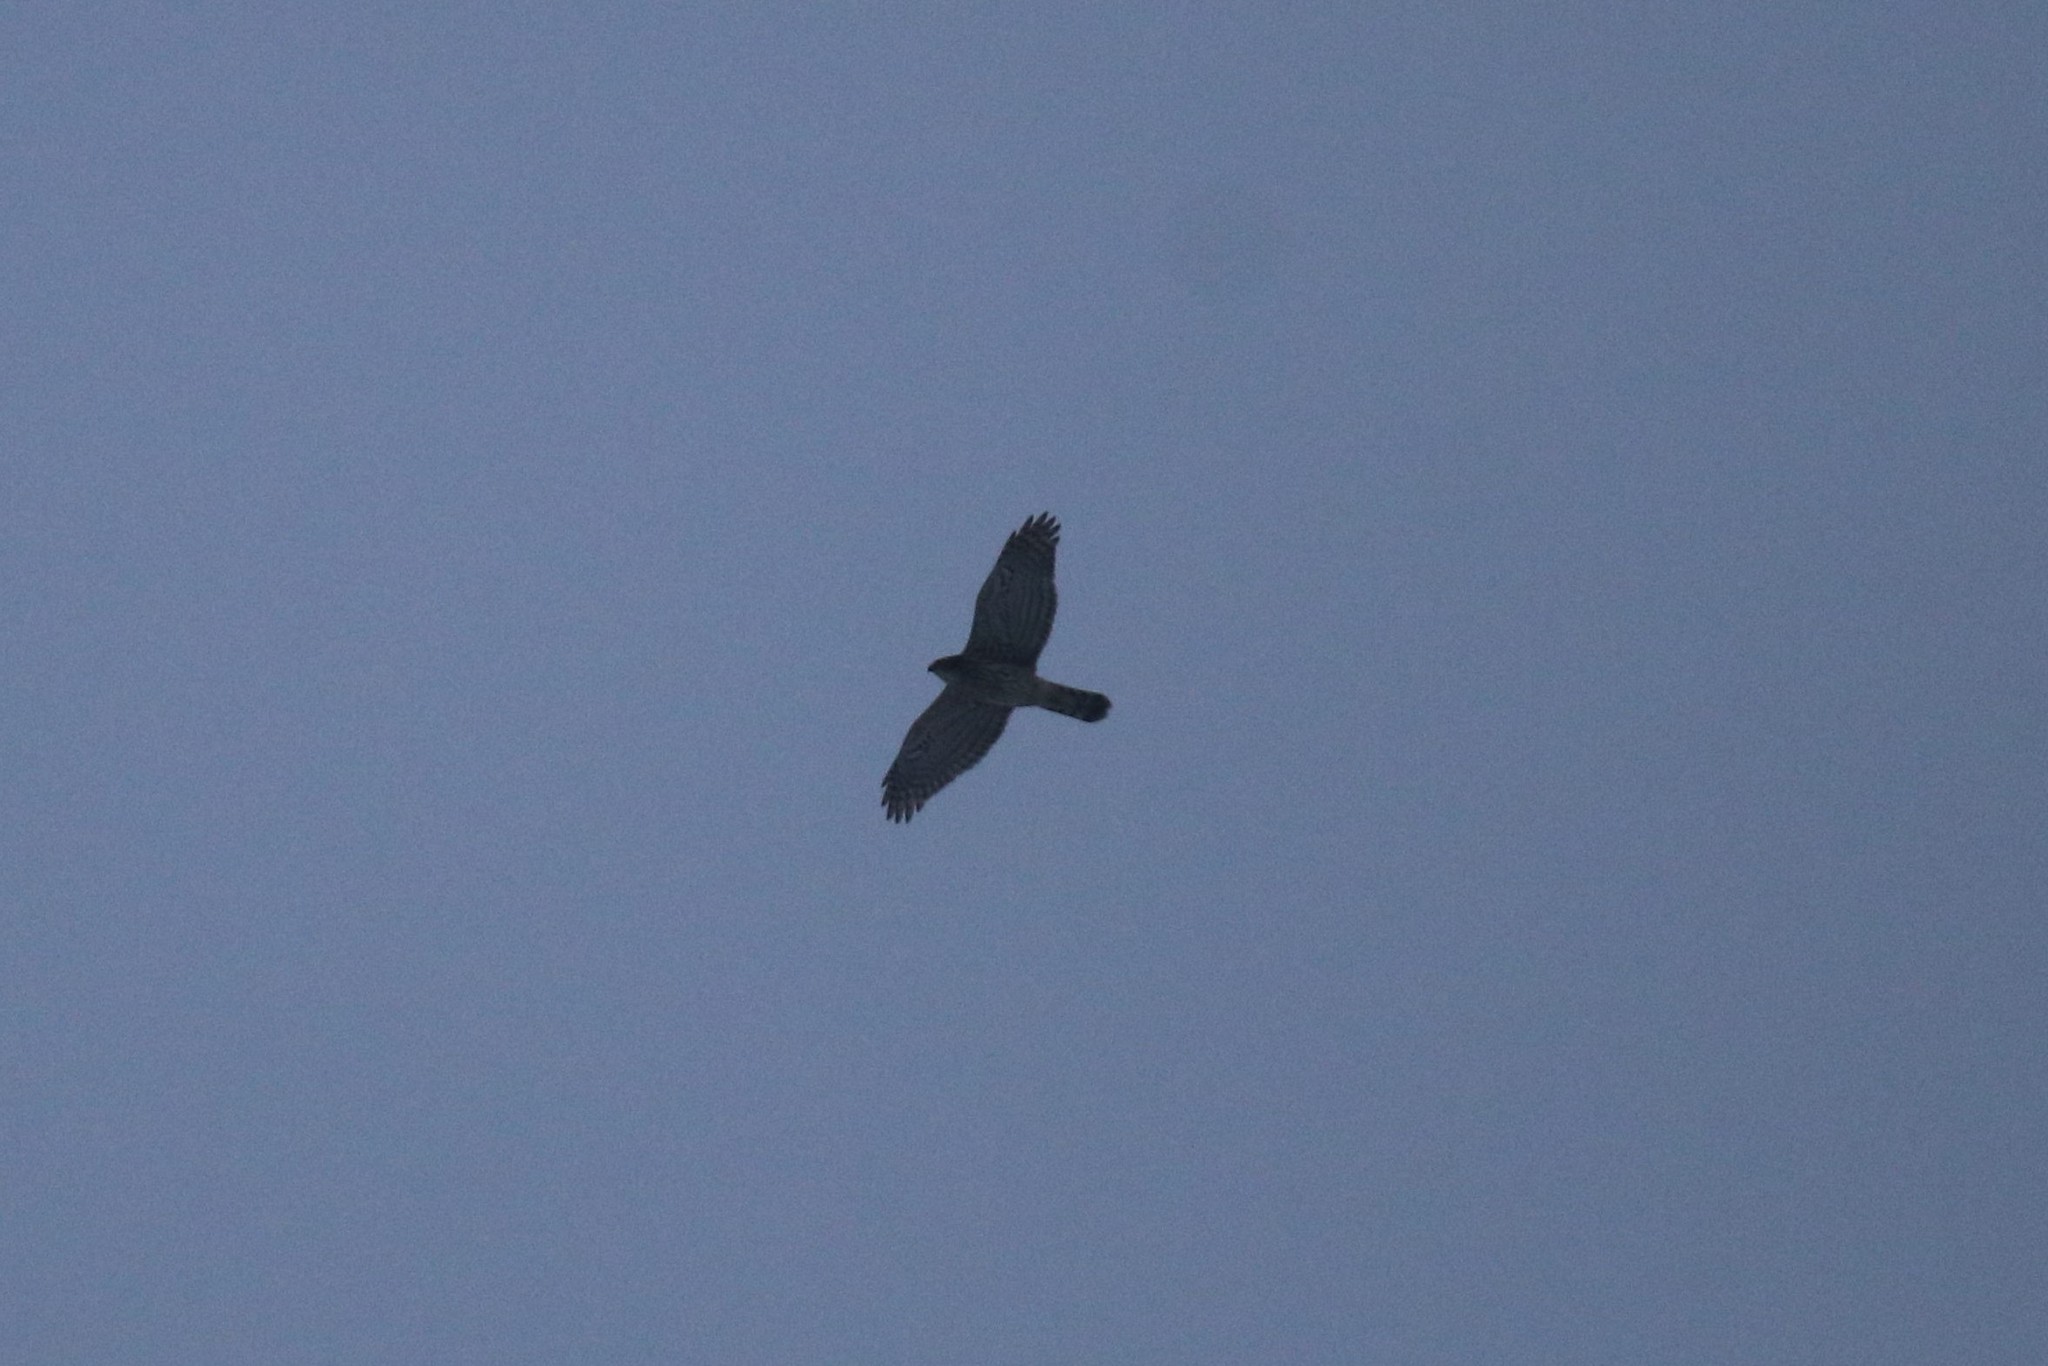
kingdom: Animalia
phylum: Chordata
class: Aves
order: Accipitriformes
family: Accipitridae
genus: Accipiter
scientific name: Accipiter gentilis
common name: Northern goshawk
